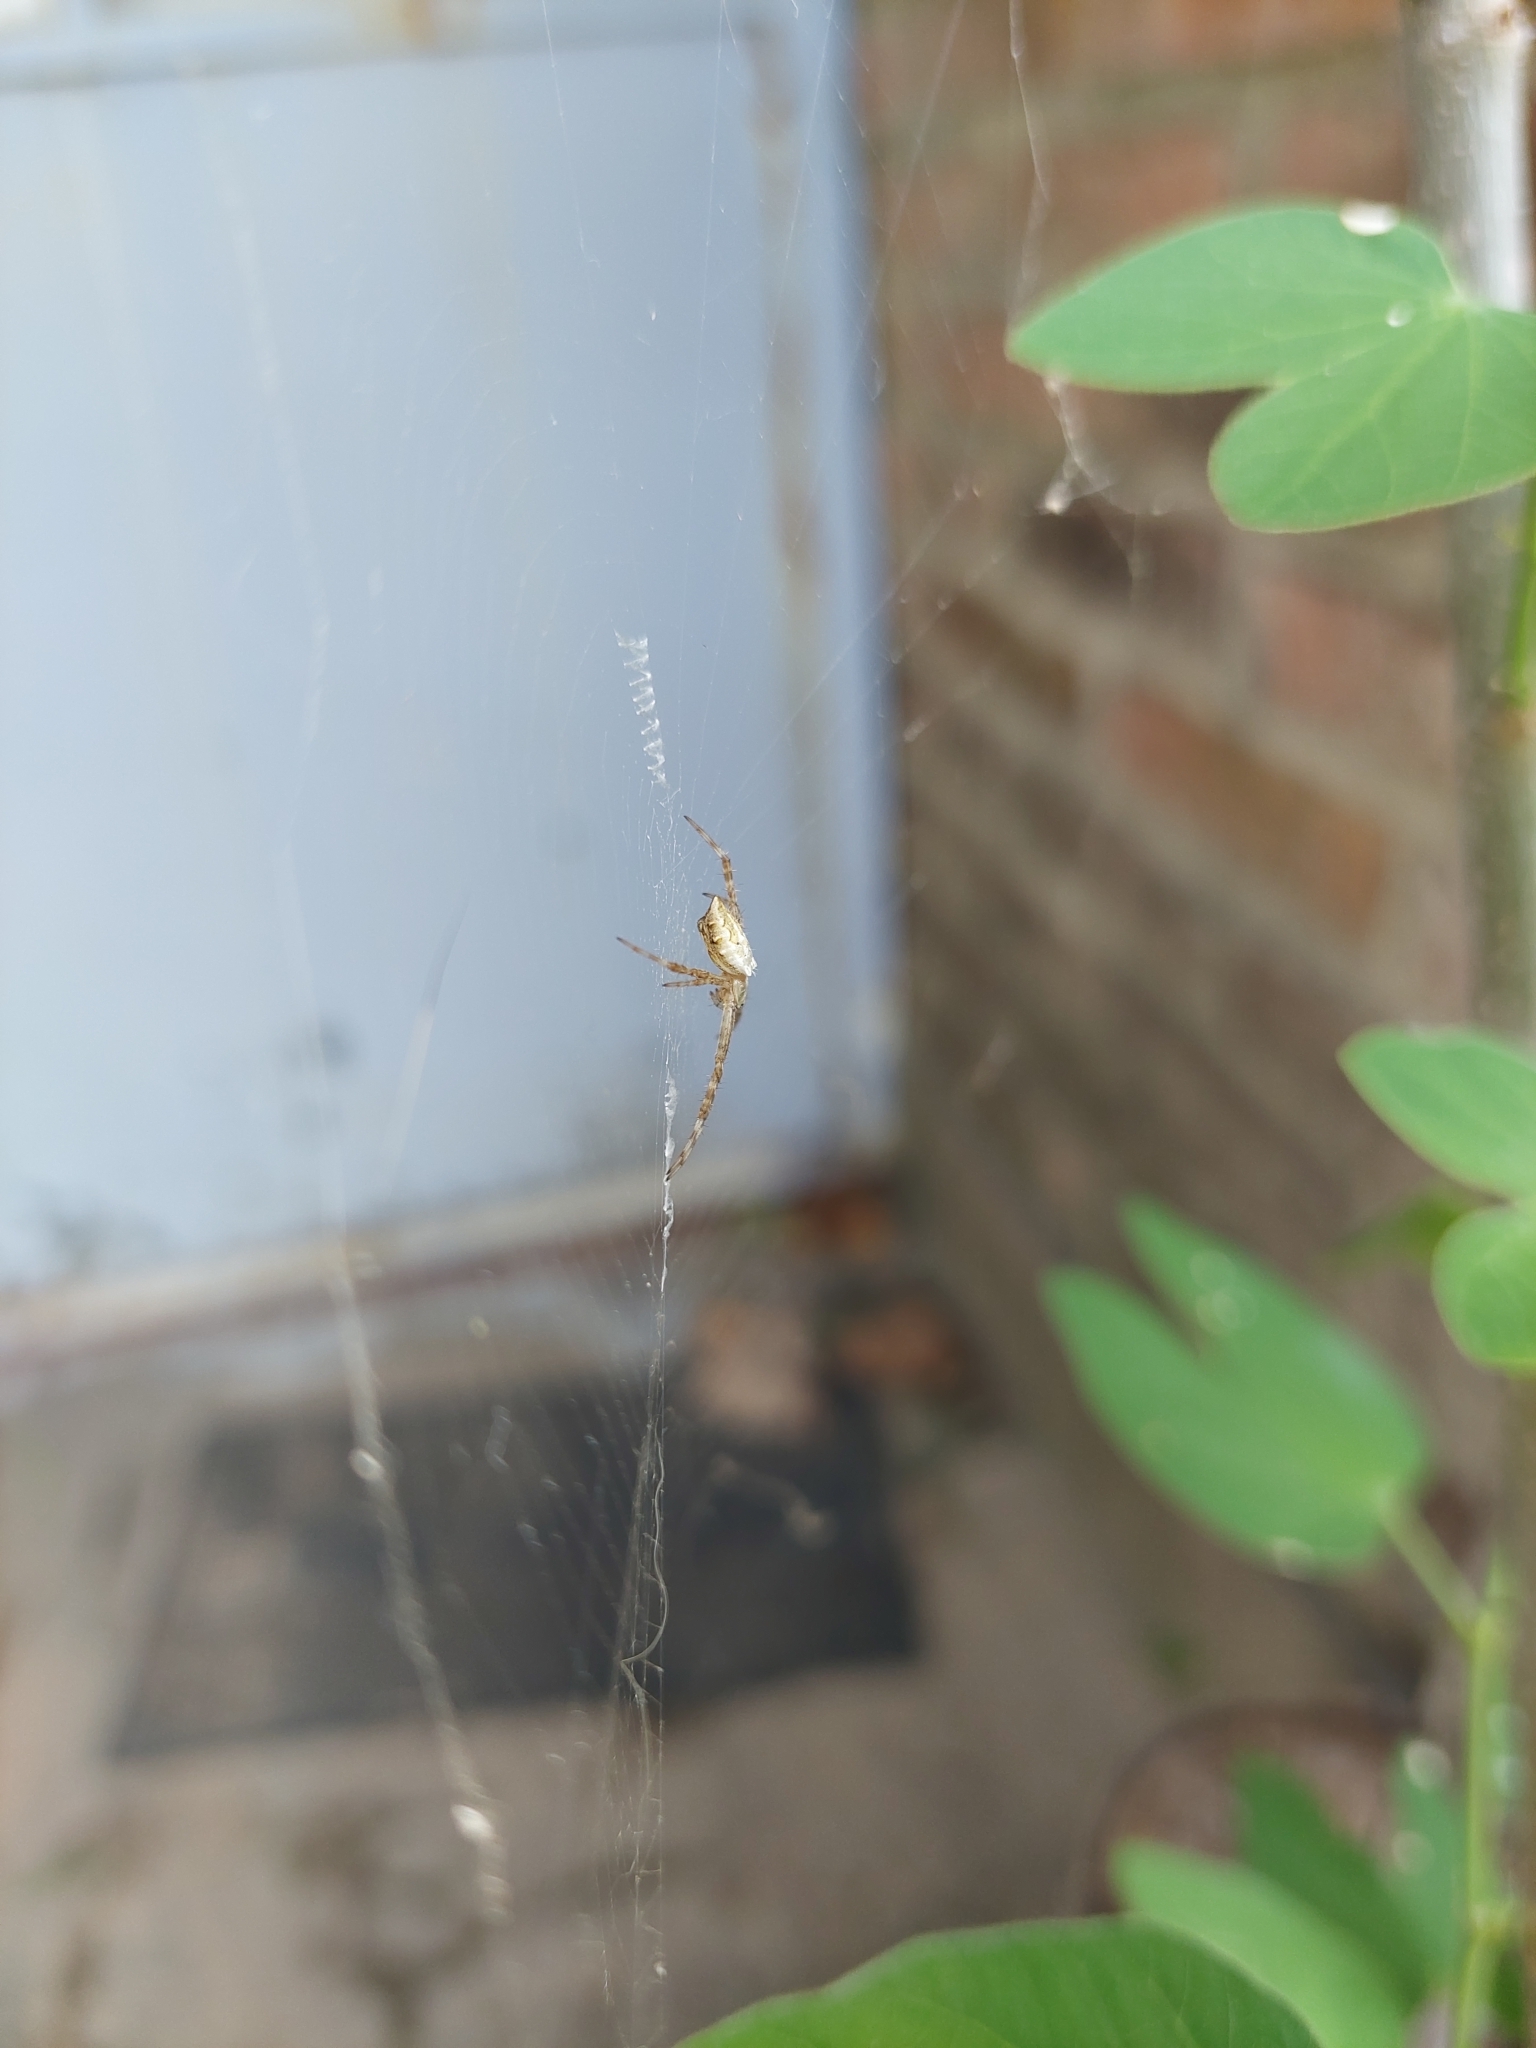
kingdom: Animalia
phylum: Arthropoda
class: Arachnida
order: Araneae
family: Araneidae
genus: Argiope
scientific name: Argiope argentata
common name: Orb weavers
